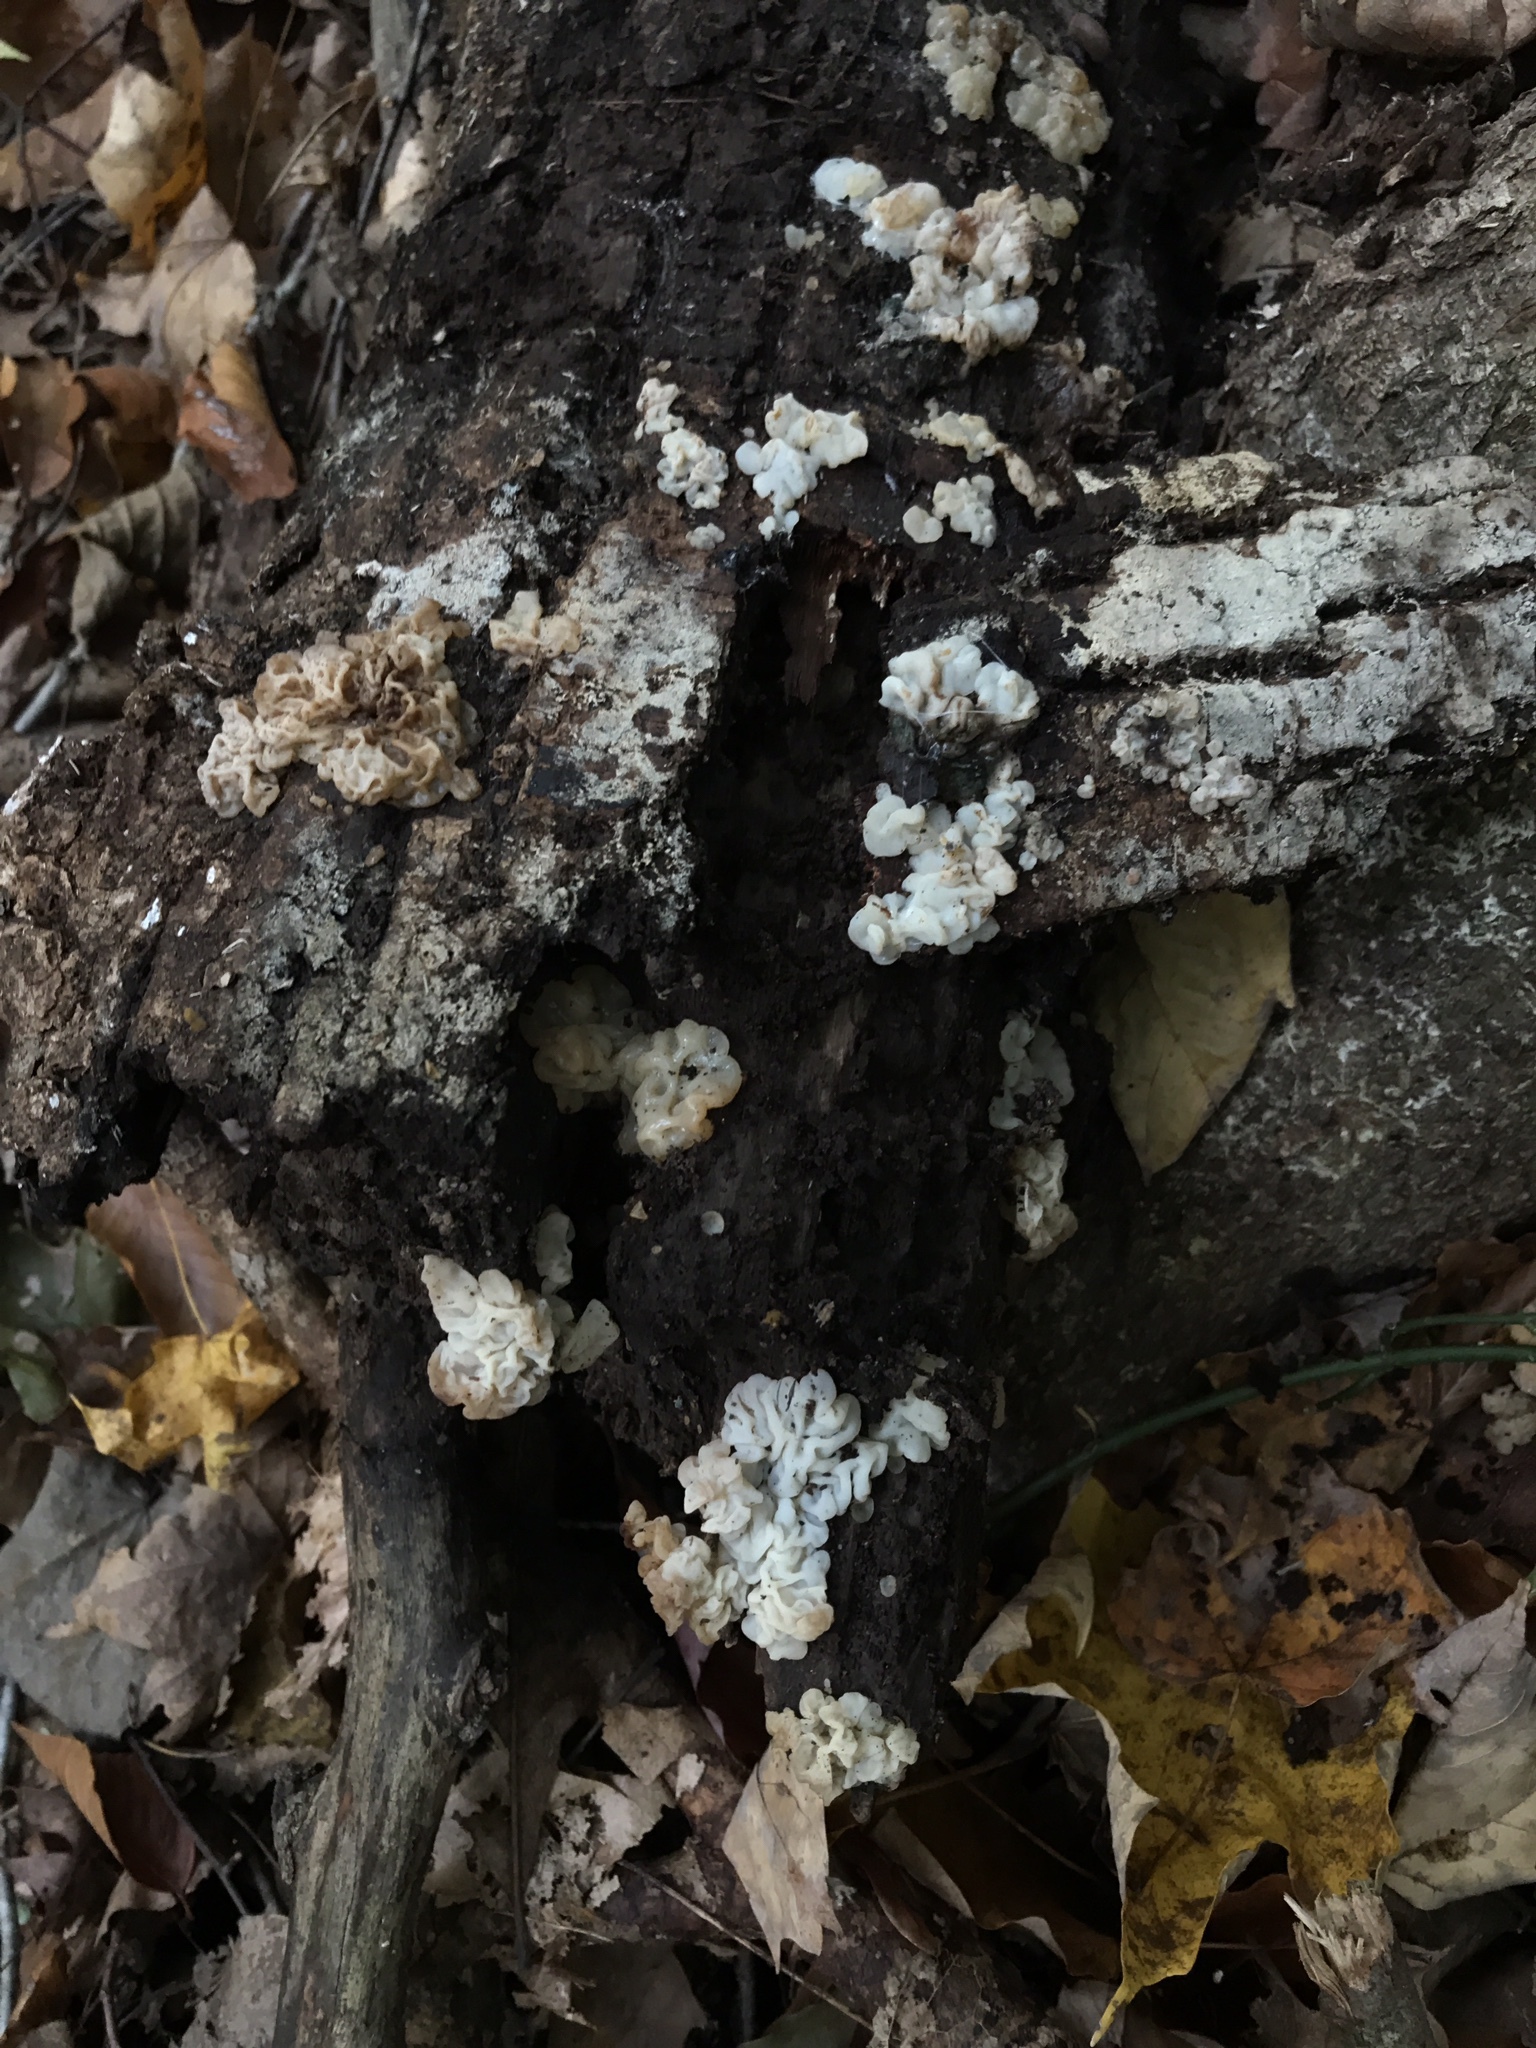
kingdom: Fungi
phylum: Basidiomycota
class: Agaricomycetes
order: Auriculariales
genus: Ductifera
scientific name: Ductifera pululahuana
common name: White jelly fungus
